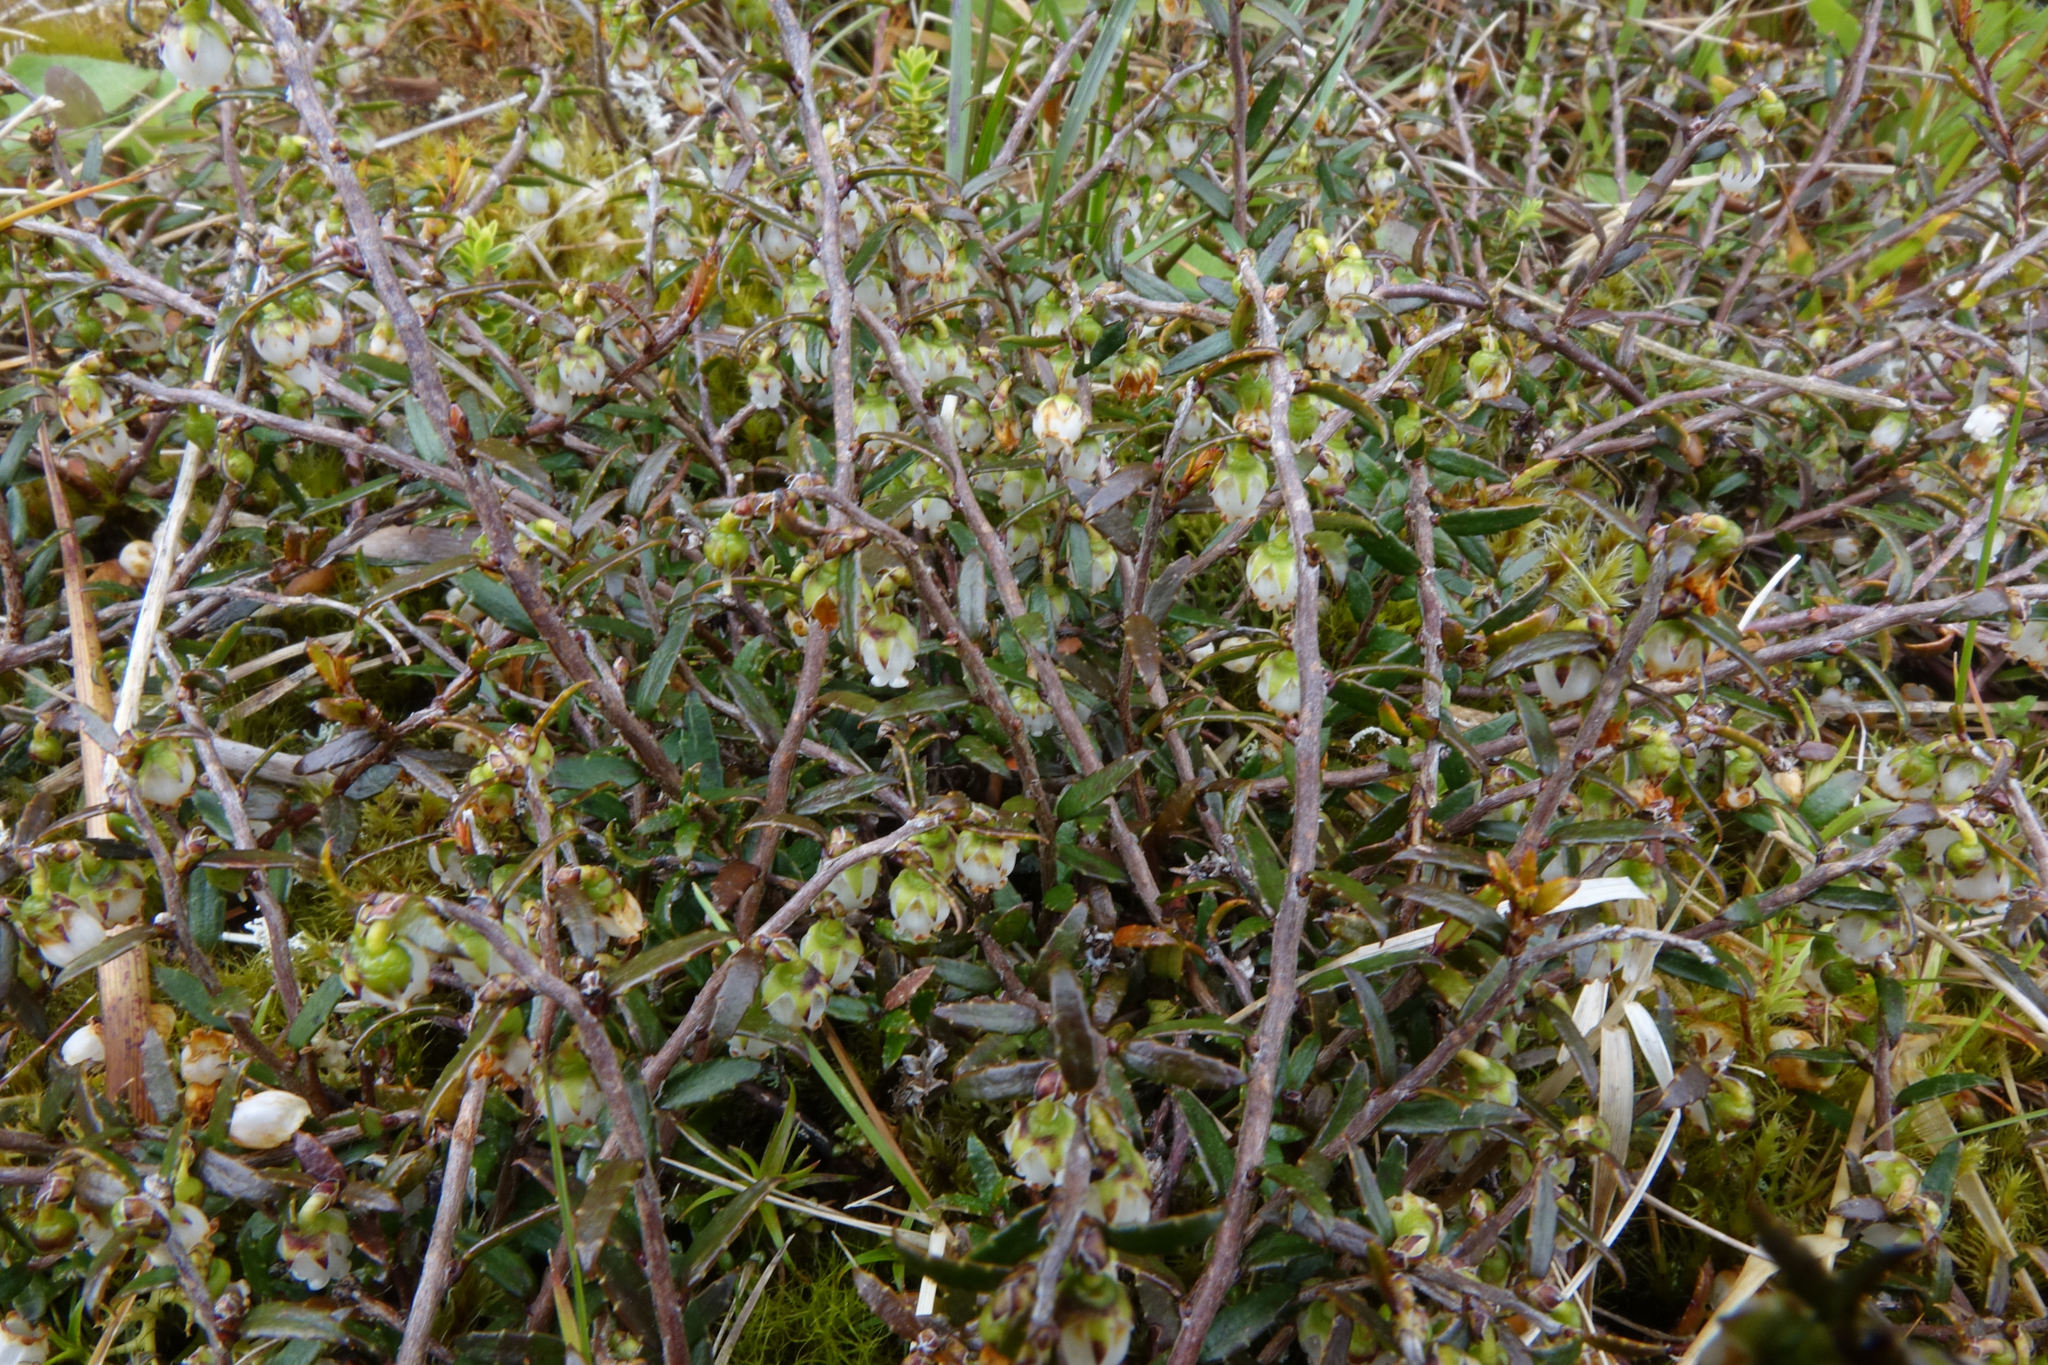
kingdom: Plantae
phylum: Tracheophyta
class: Magnoliopsida
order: Ericales
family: Ericaceae
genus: Gaultheria
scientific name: Gaultheria macrostigma
